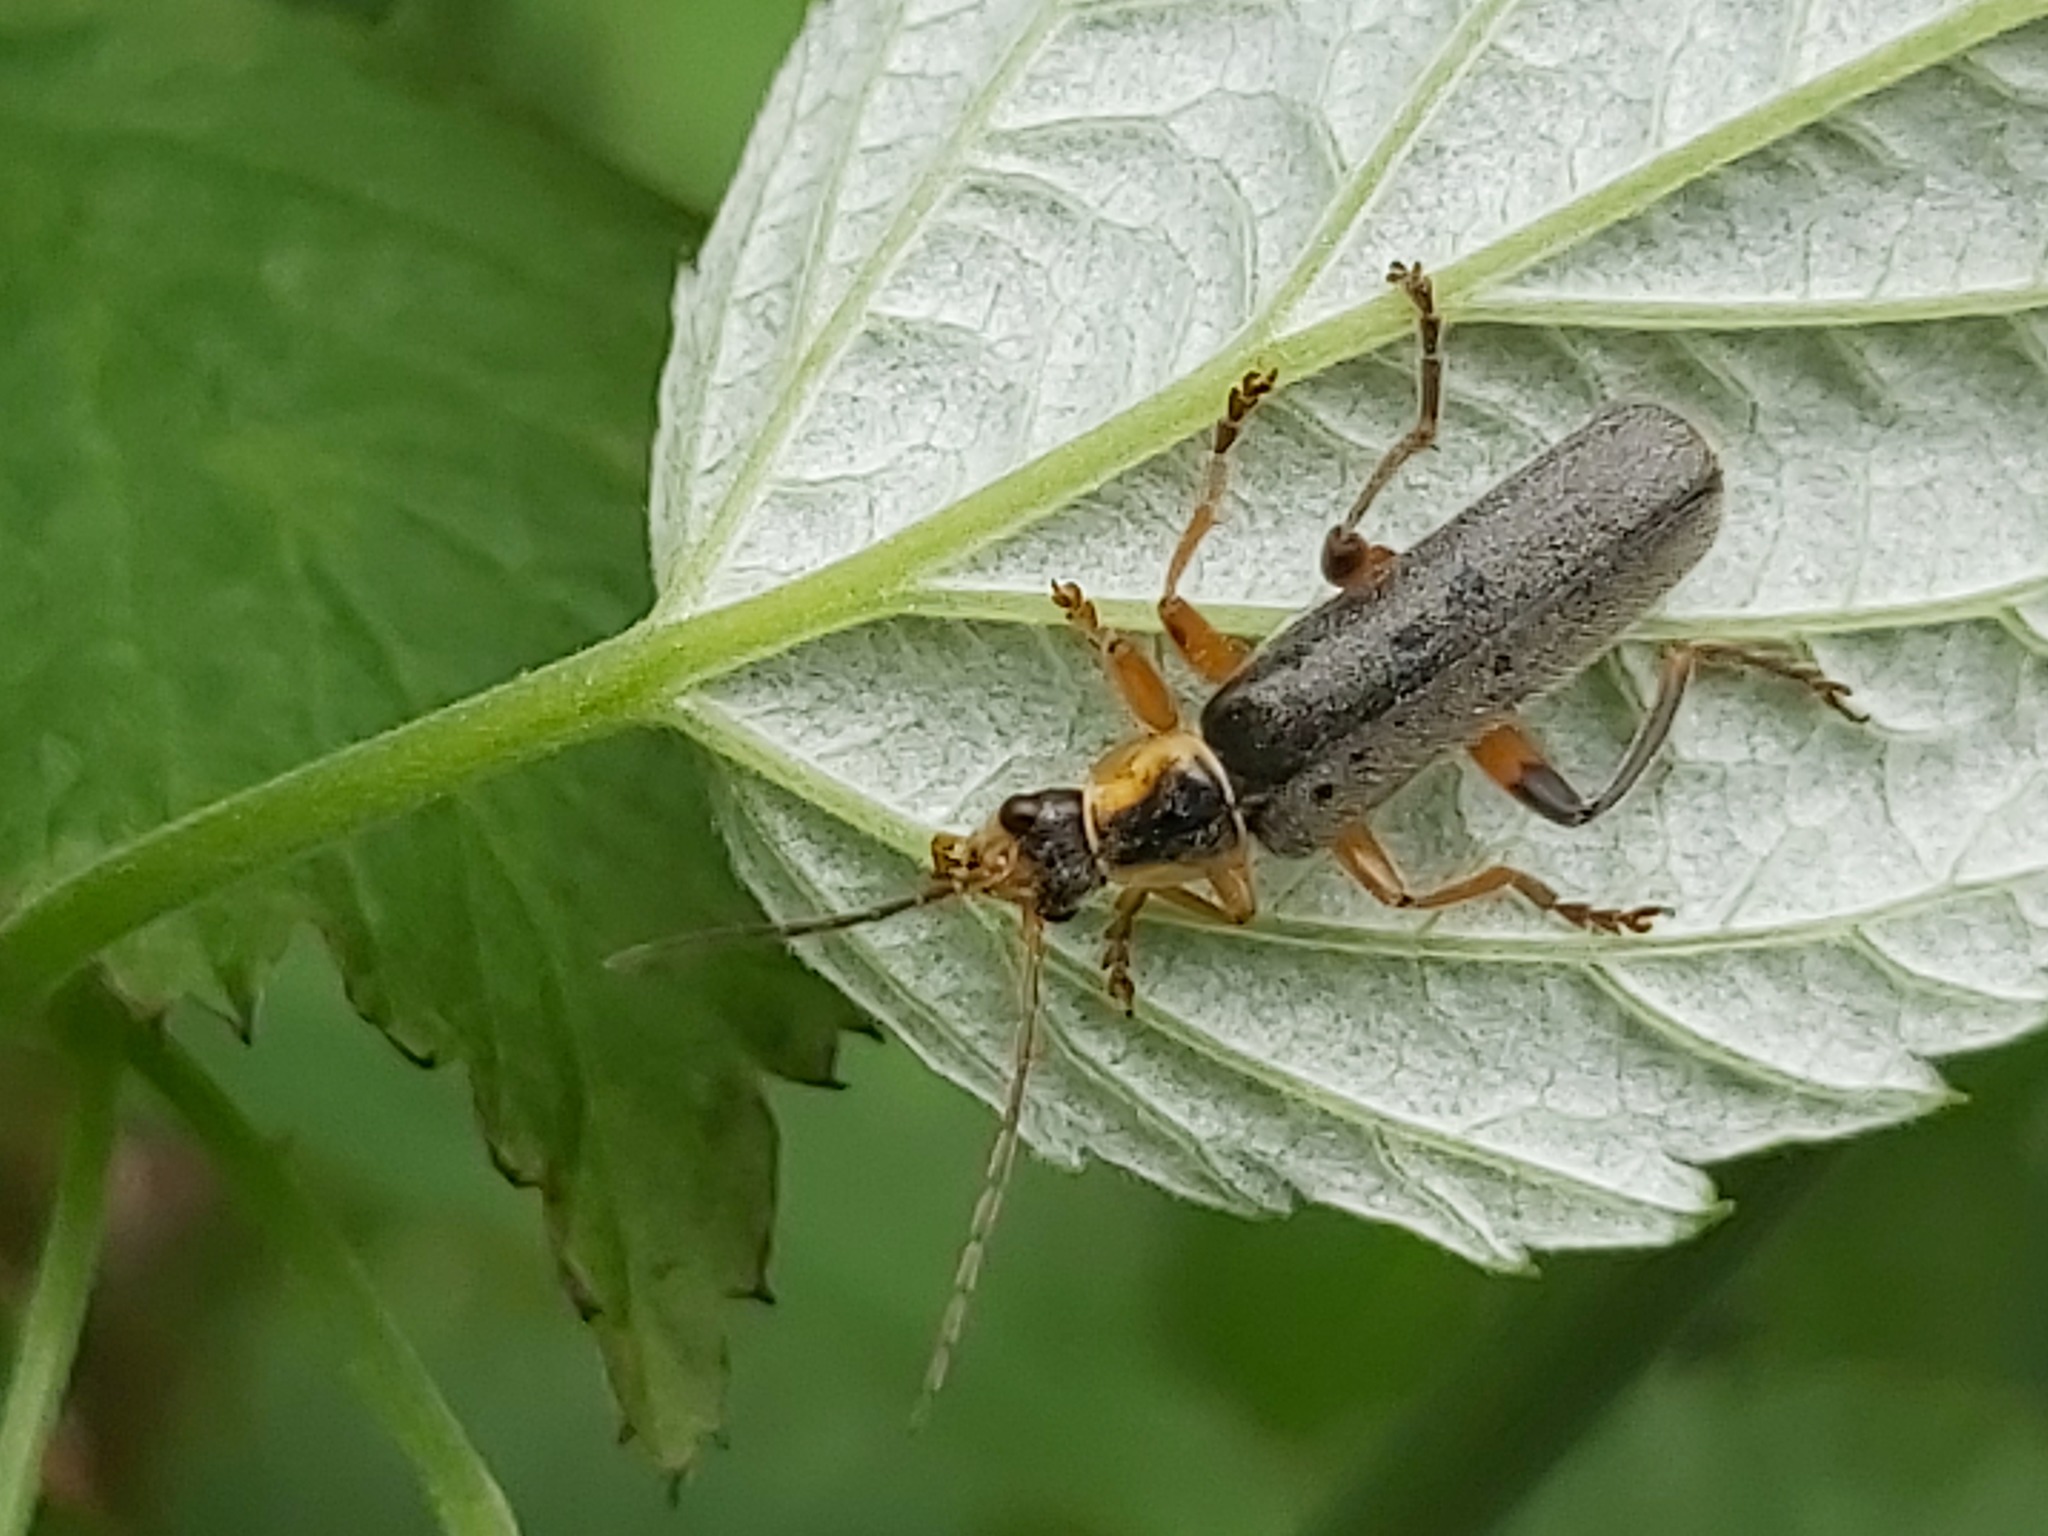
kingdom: Animalia
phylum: Arthropoda
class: Insecta
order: Coleoptera
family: Cantharidae
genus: Cantharis
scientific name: Cantharis nigricans
